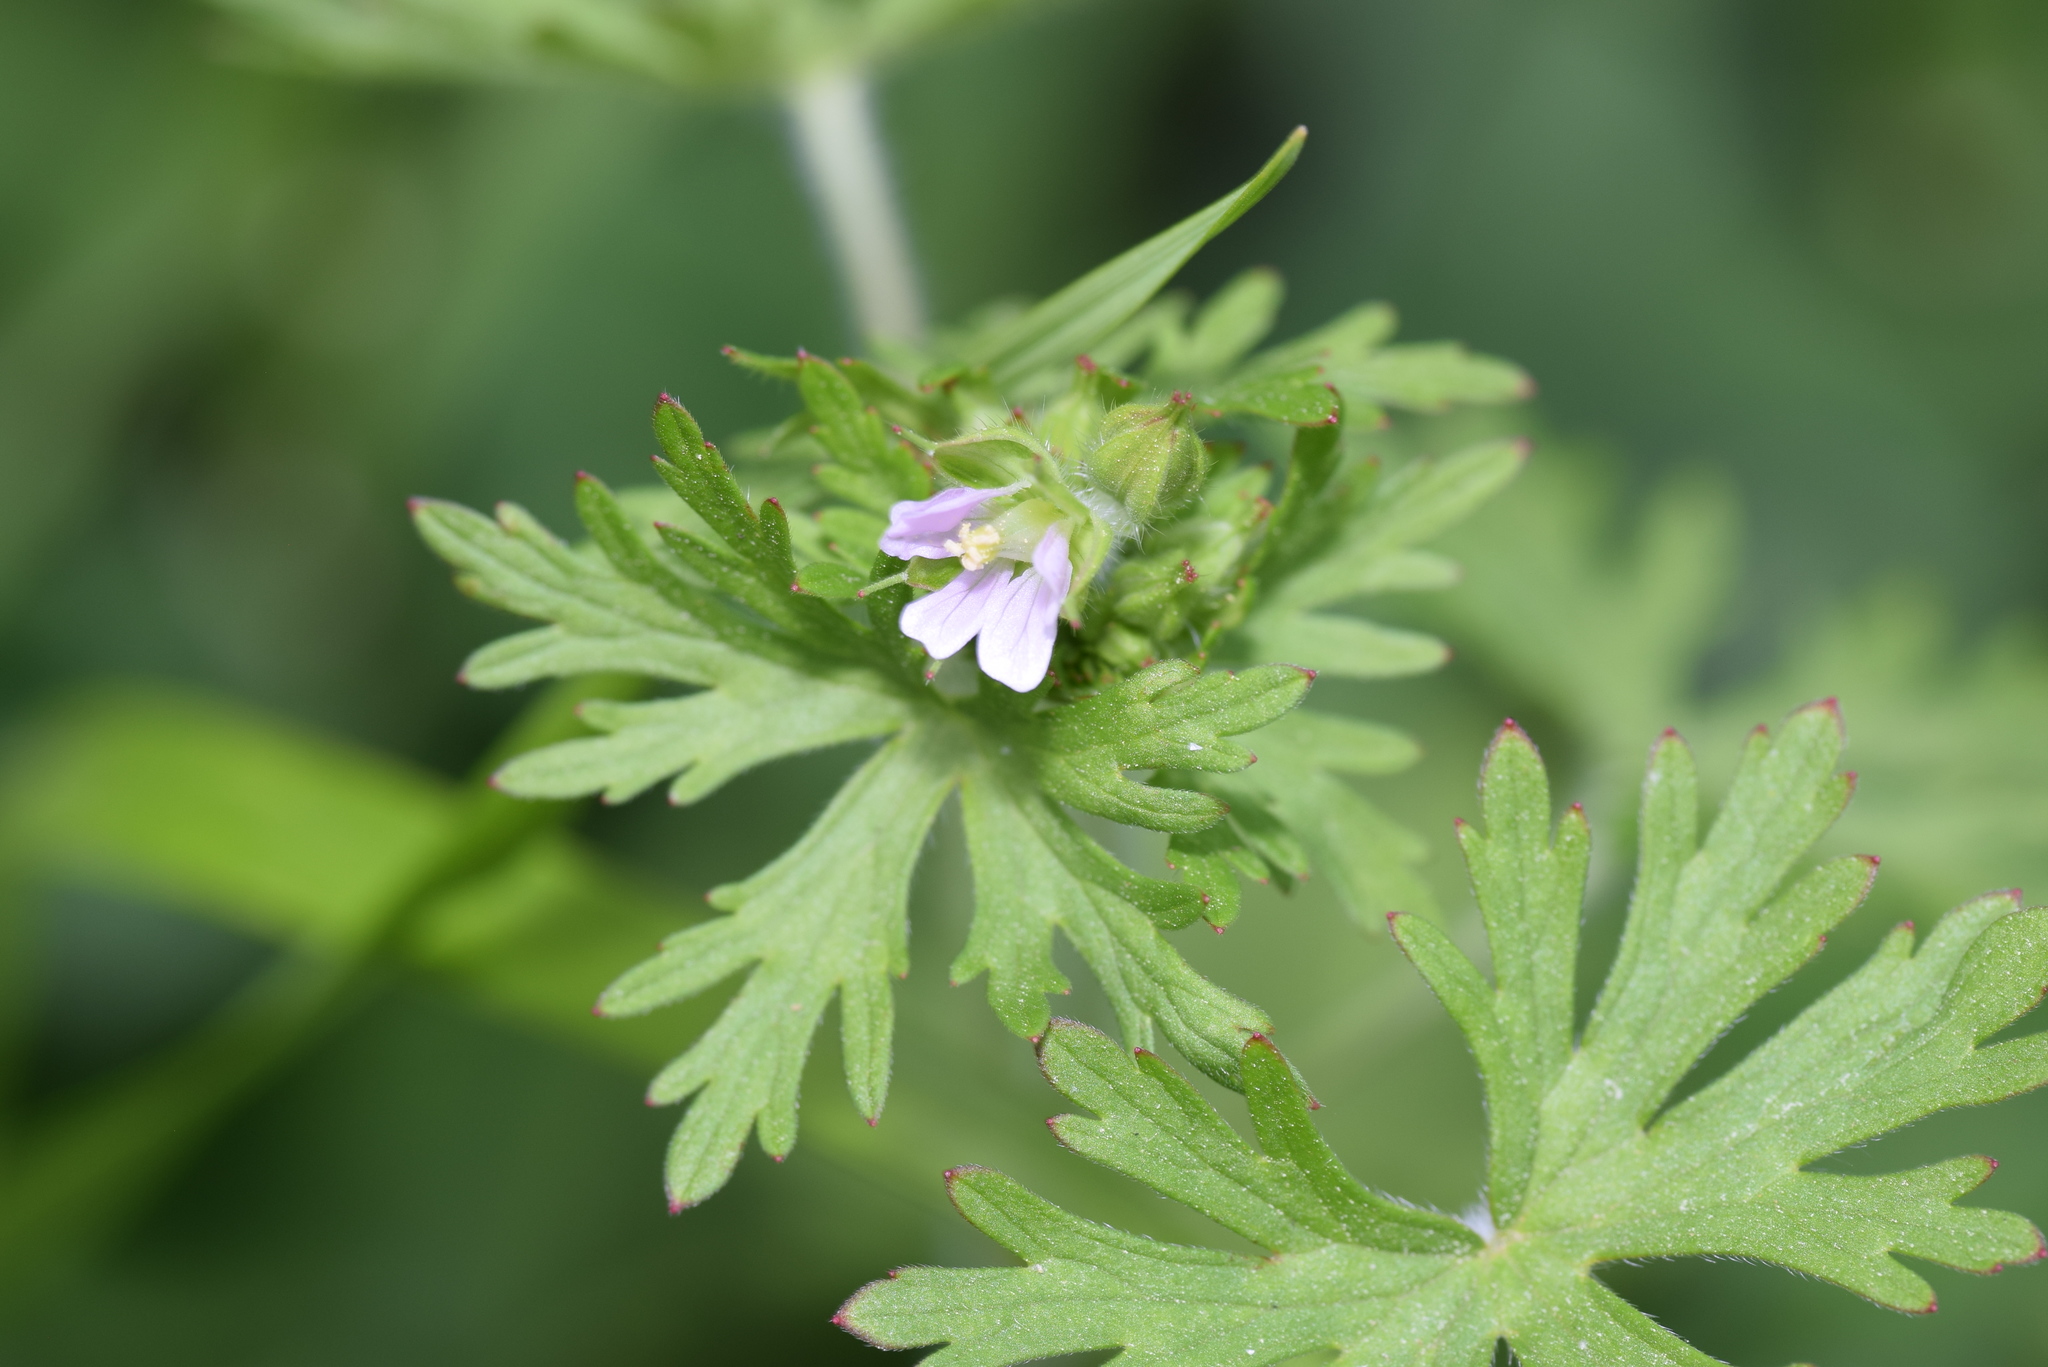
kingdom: Plantae
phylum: Tracheophyta
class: Magnoliopsida
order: Geraniales
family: Geraniaceae
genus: Geranium
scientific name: Geranium carolinianum
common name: Carolina crane's-bill
